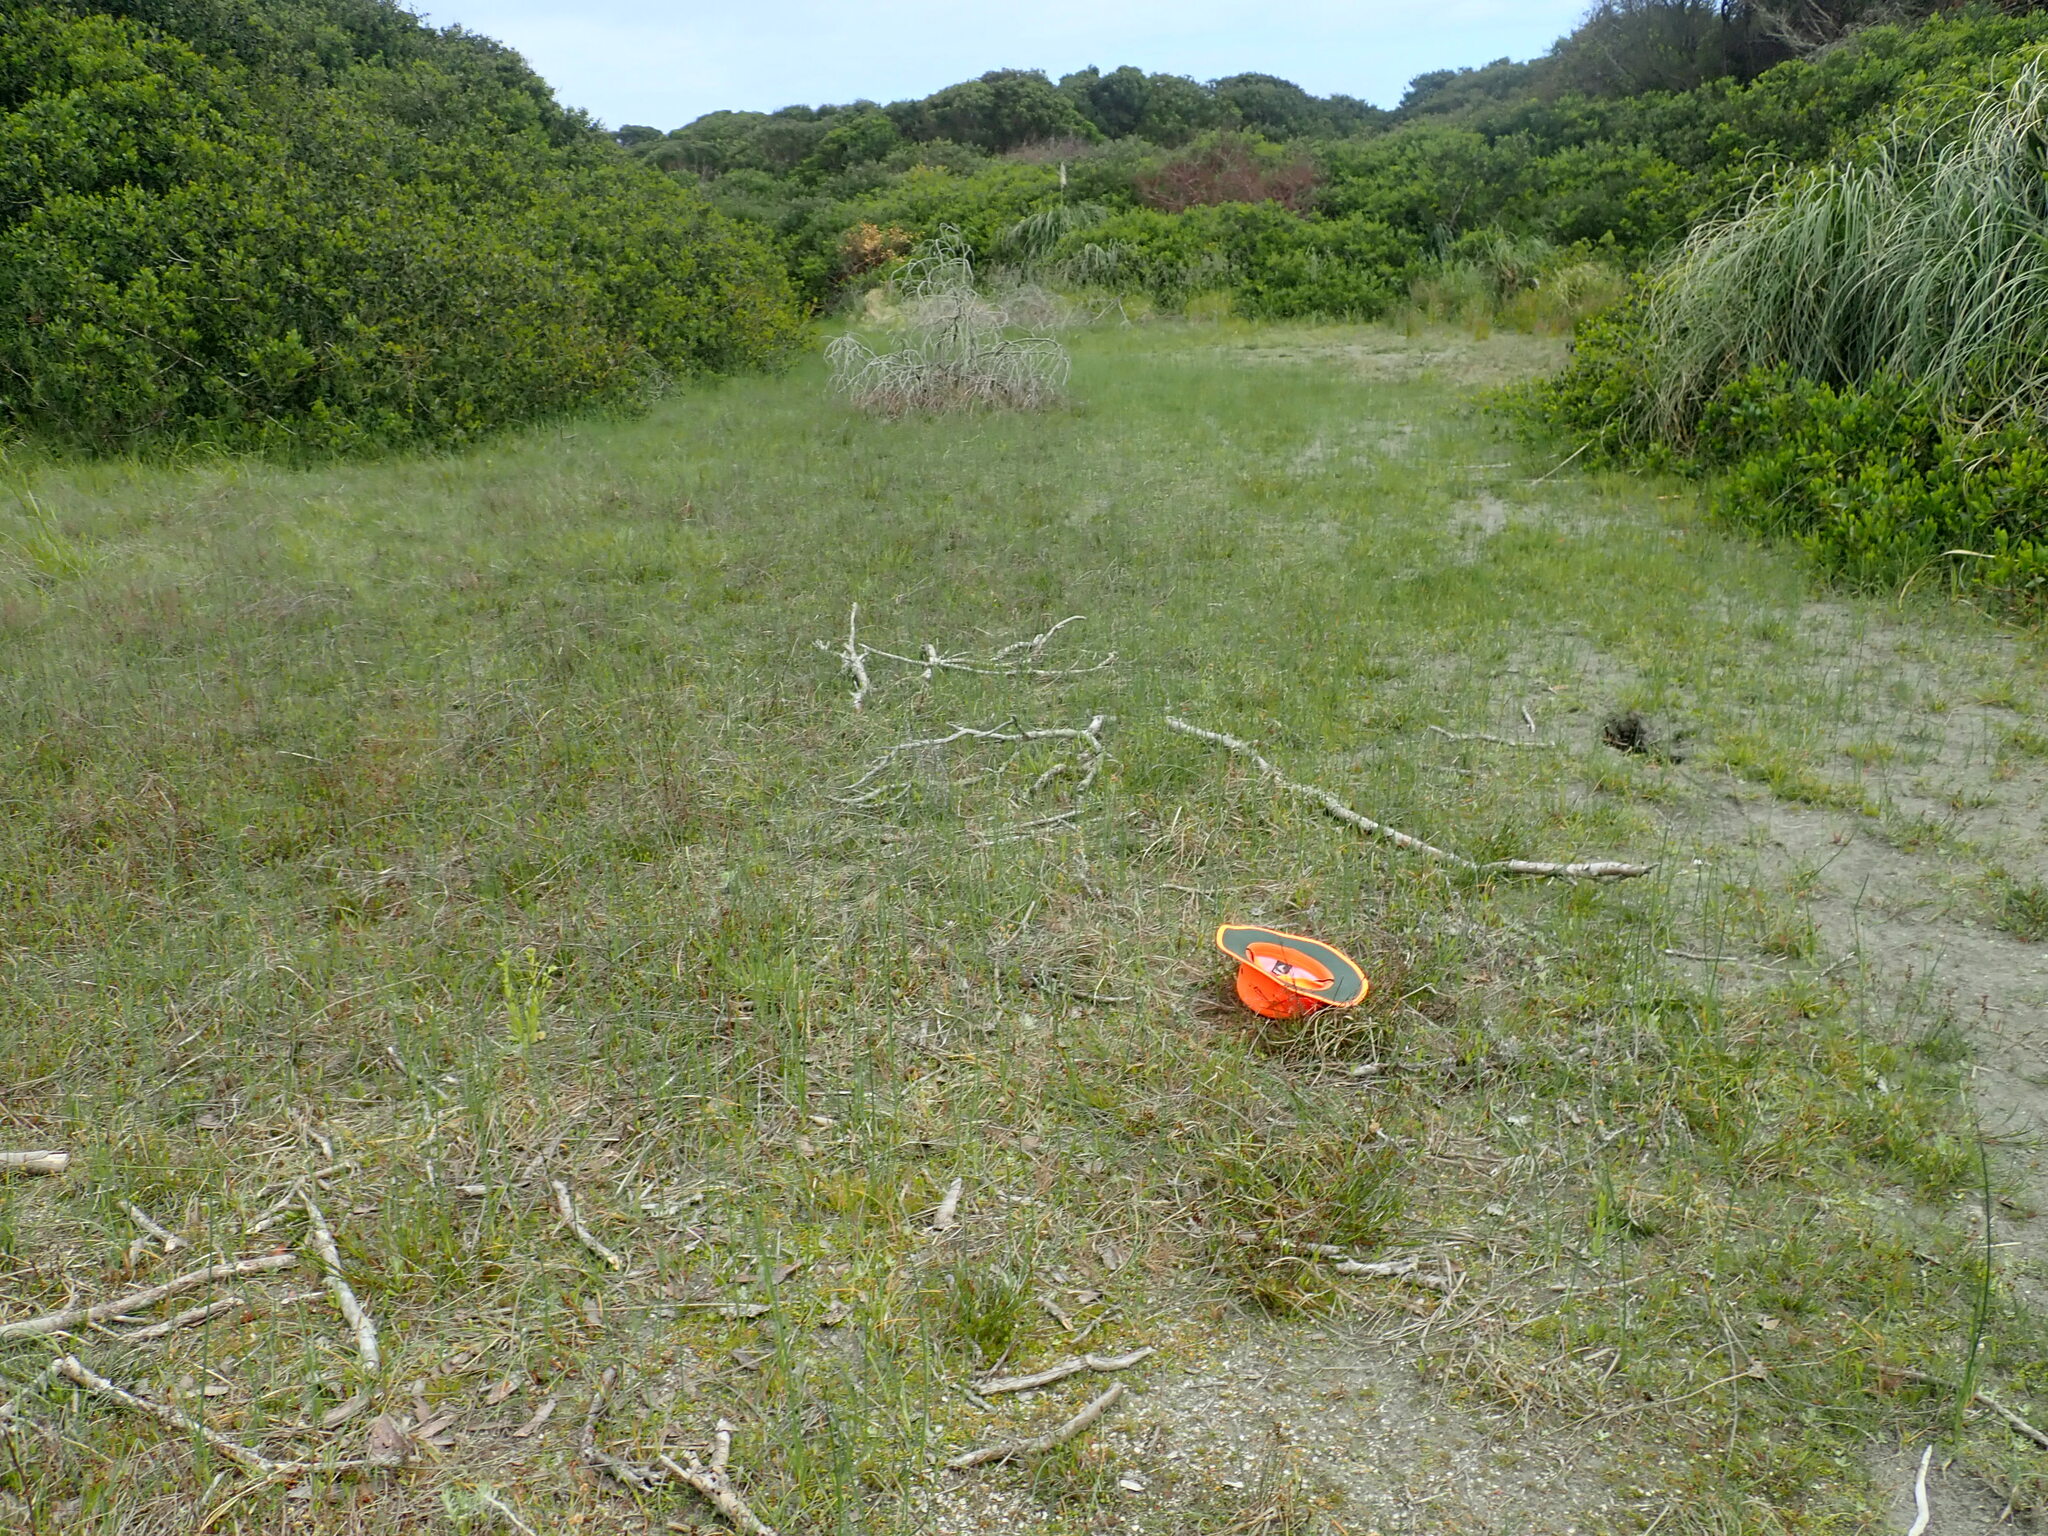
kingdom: Plantae
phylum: Tracheophyta
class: Liliopsida
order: Poales
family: Cyperaceae
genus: Carex
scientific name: Carex pumila
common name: Dwarf sedge
